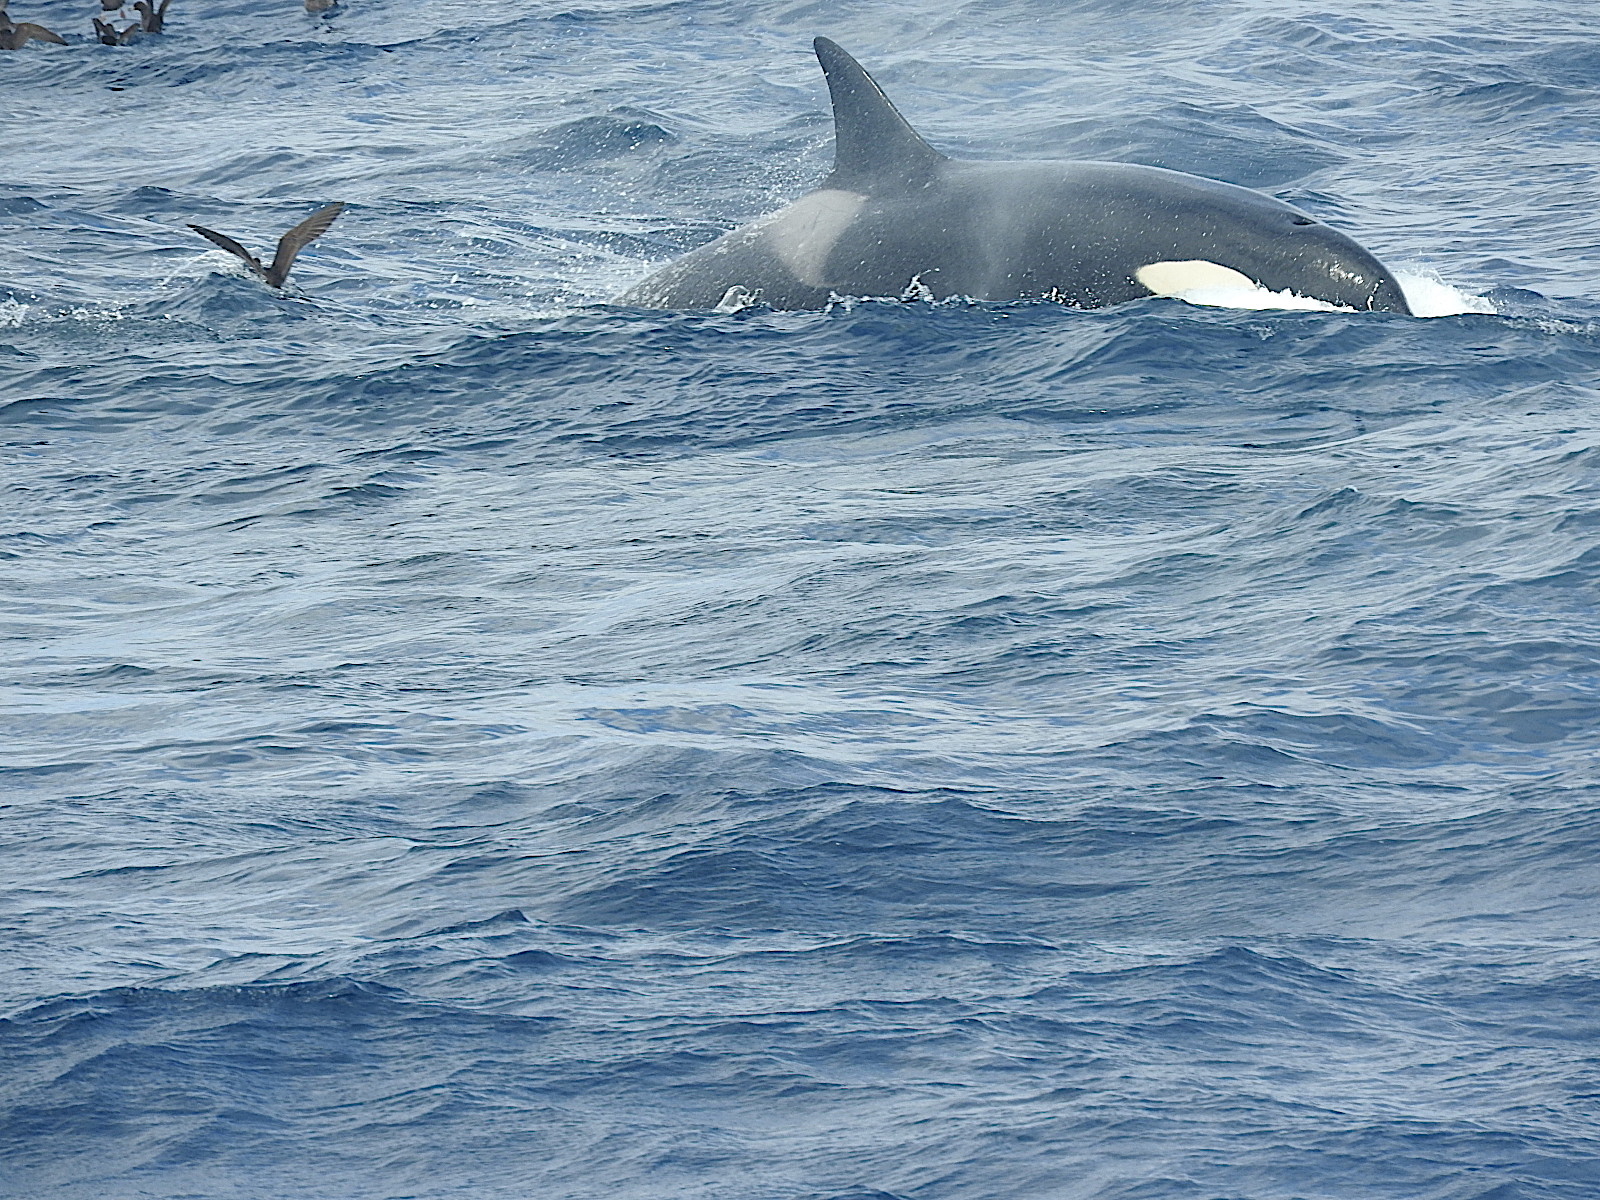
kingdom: Animalia
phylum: Chordata
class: Mammalia
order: Cetacea
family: Delphinidae
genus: Orcinus
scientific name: Orcinus orca
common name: Killer whale
